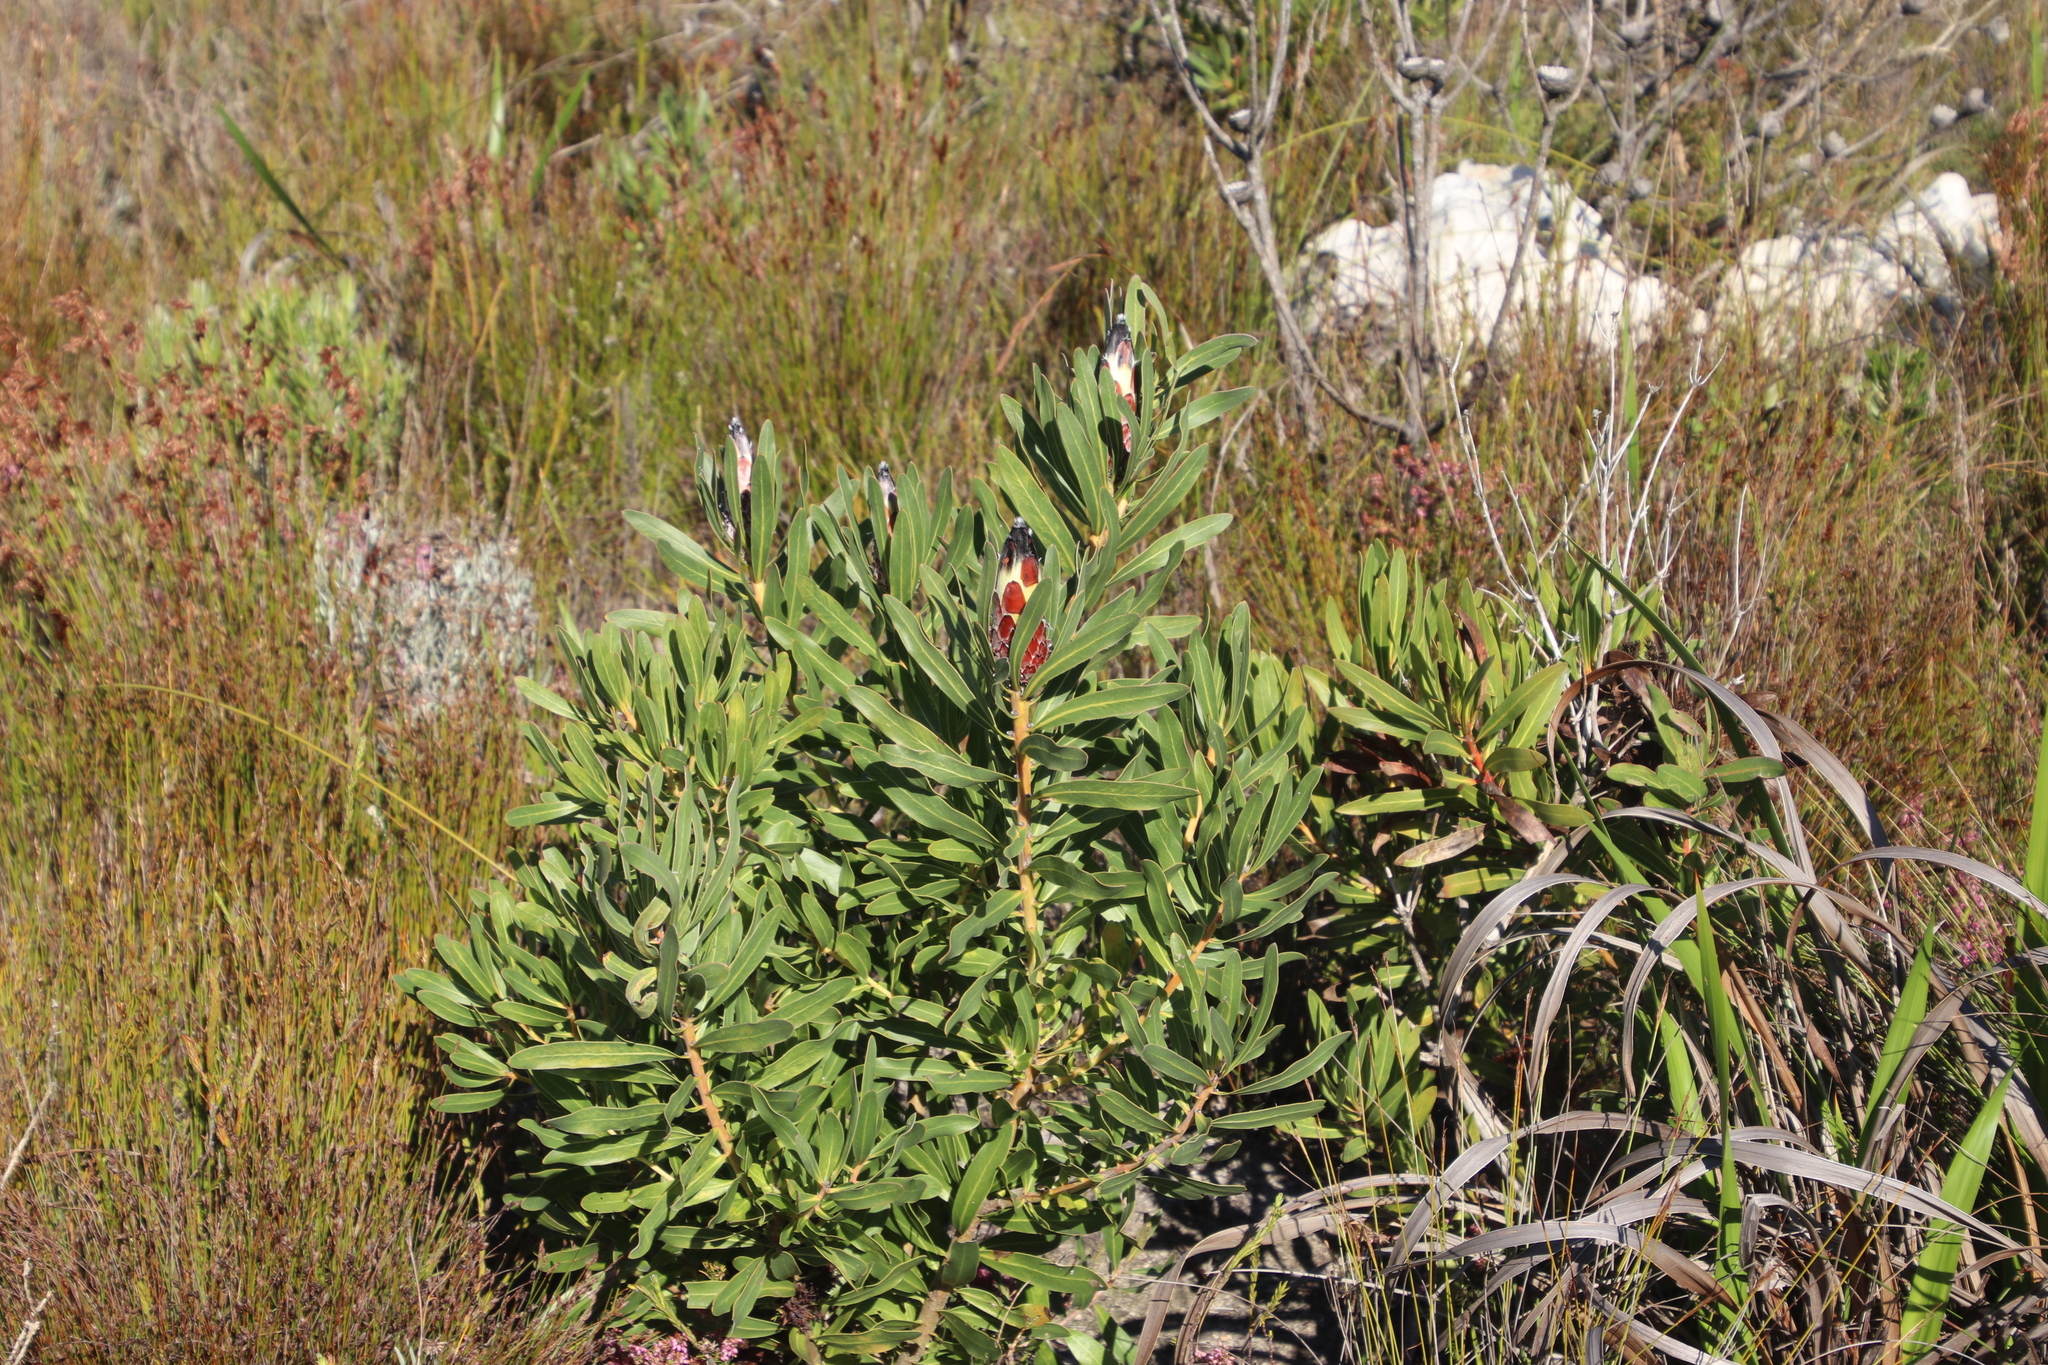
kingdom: Plantae
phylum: Tracheophyta
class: Magnoliopsida
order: Proteales
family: Proteaceae
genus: Protea
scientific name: Protea lepidocarpodendron
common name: Black-bearded protea
